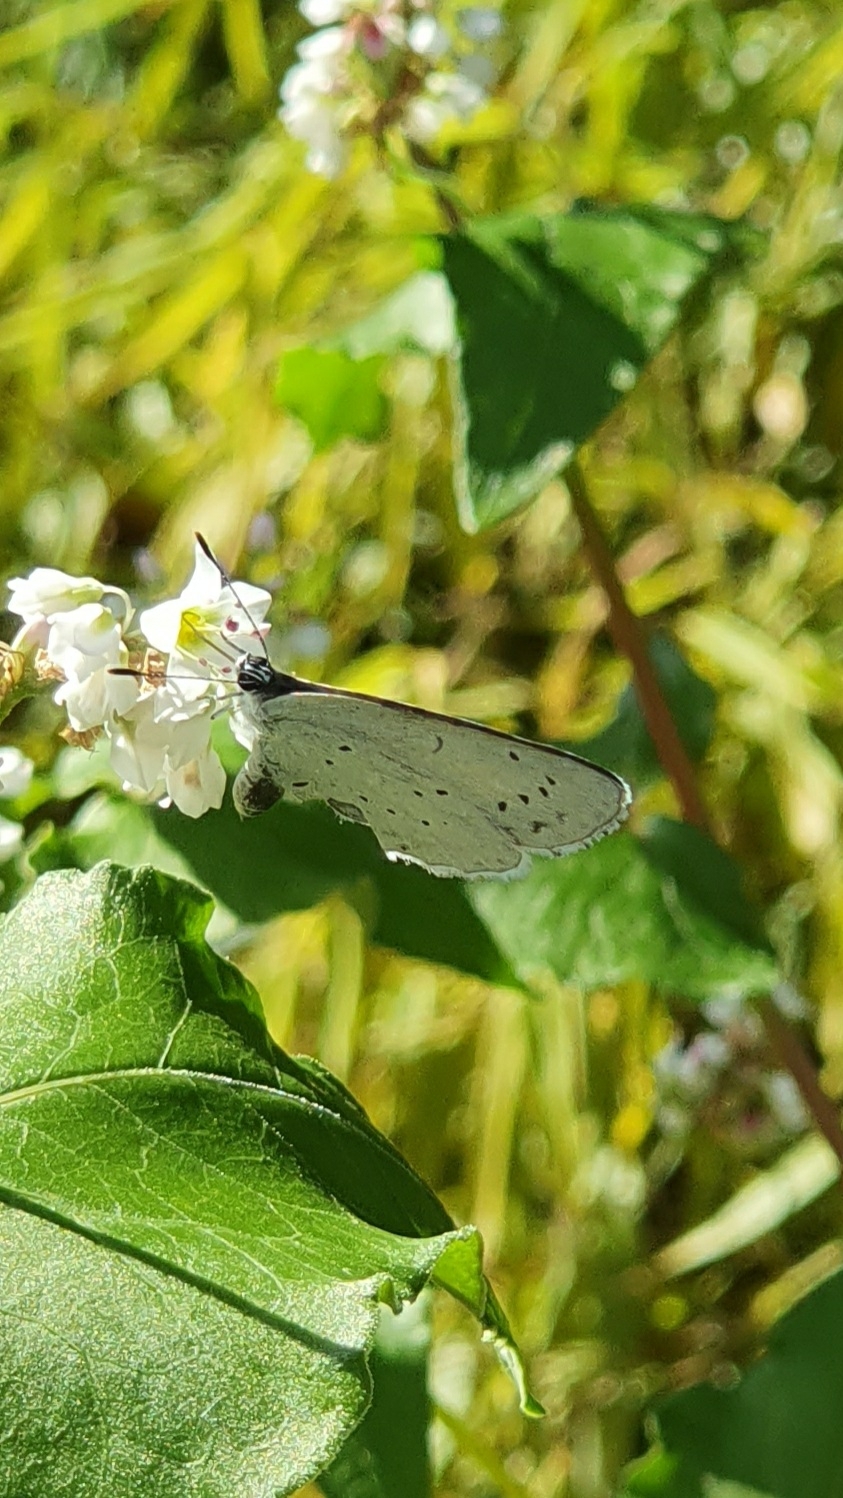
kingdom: Animalia
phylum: Arthropoda
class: Insecta
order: Lepidoptera
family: Lycaenidae
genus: Celastrina
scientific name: Celastrina argiolus
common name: Holly blue
